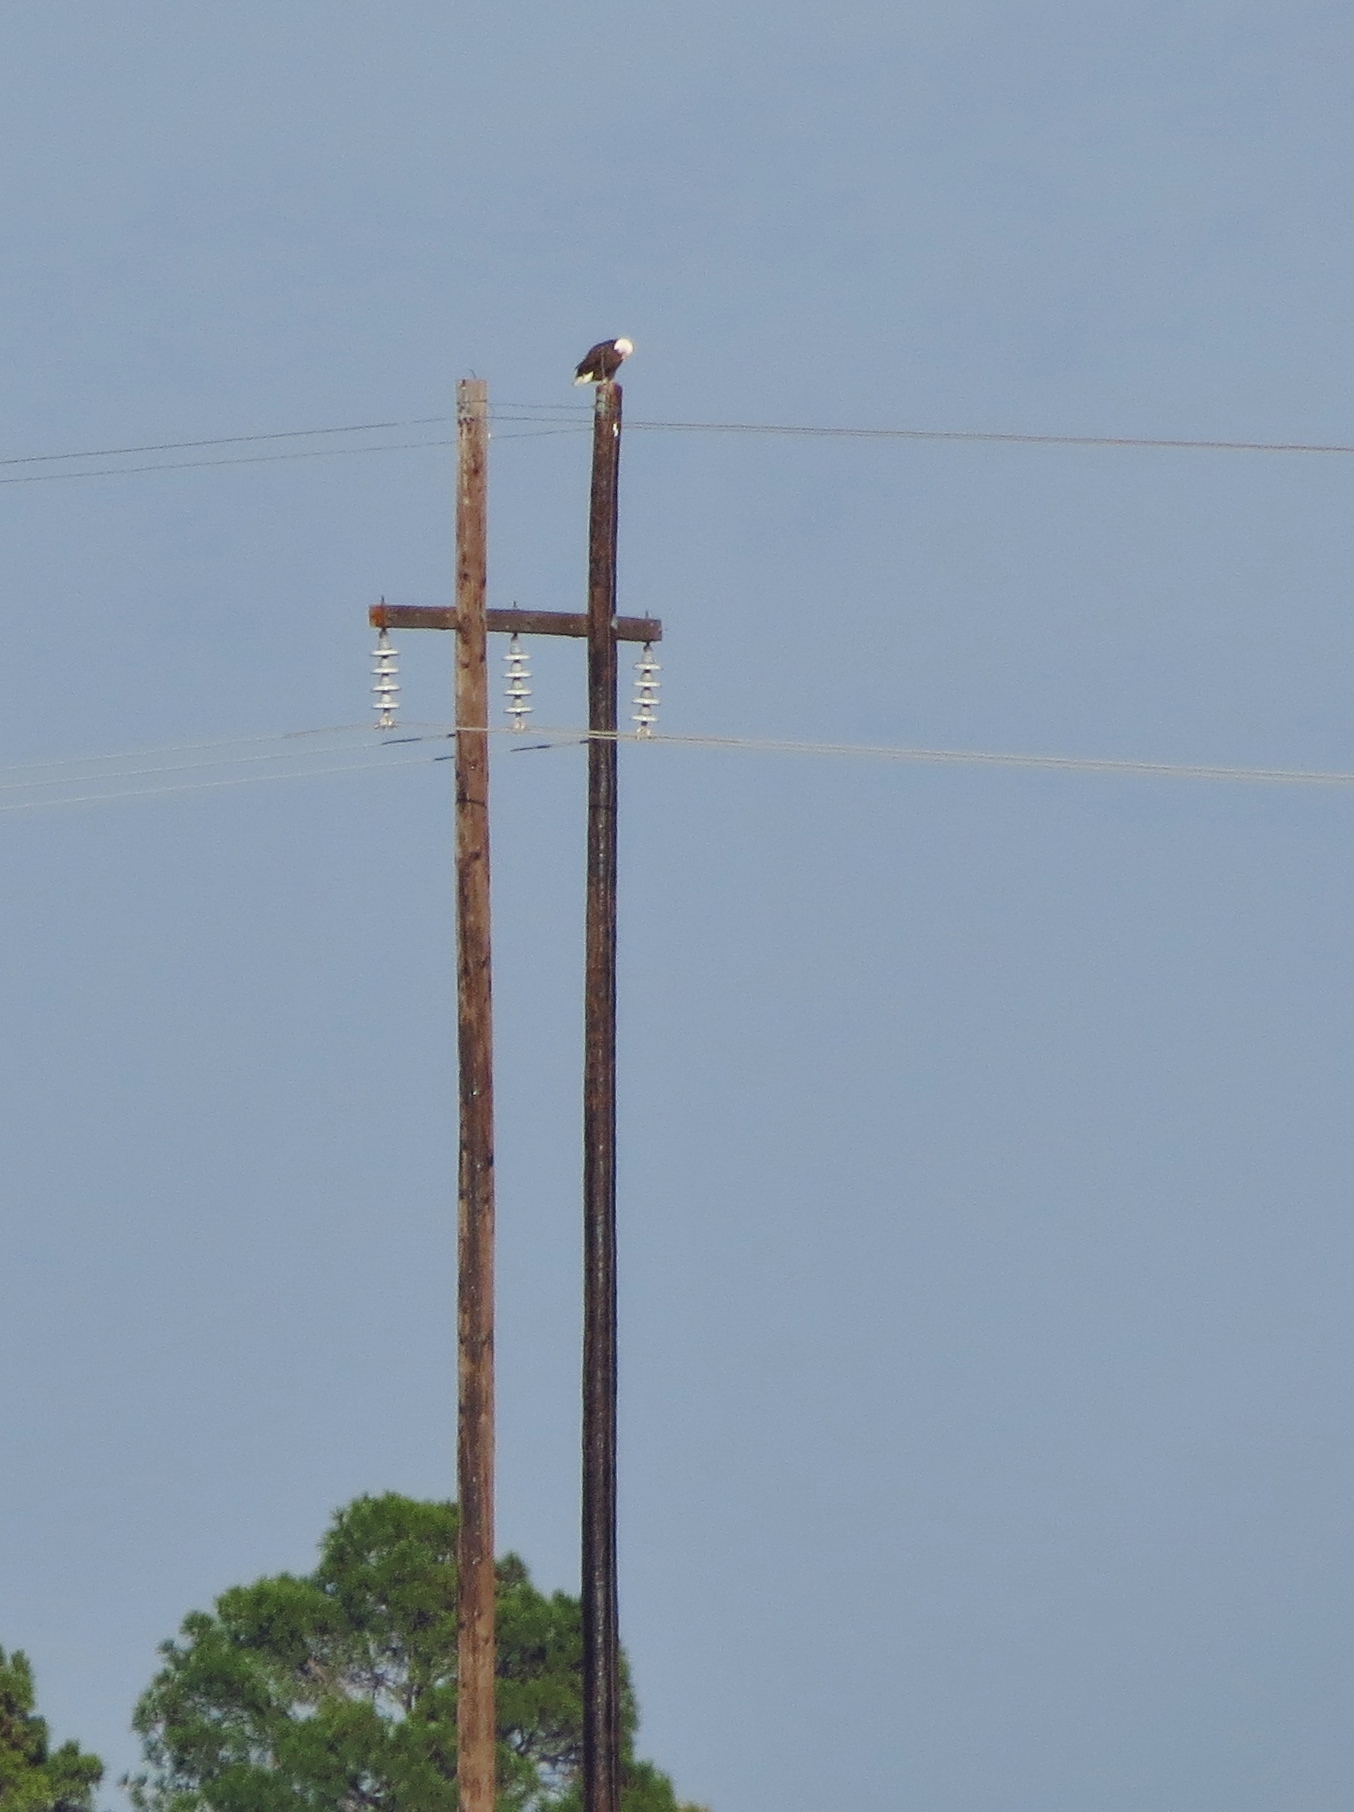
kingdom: Animalia
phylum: Chordata
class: Aves
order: Accipitriformes
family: Accipitridae
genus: Haliaeetus
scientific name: Haliaeetus leucocephalus
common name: Bald eagle
